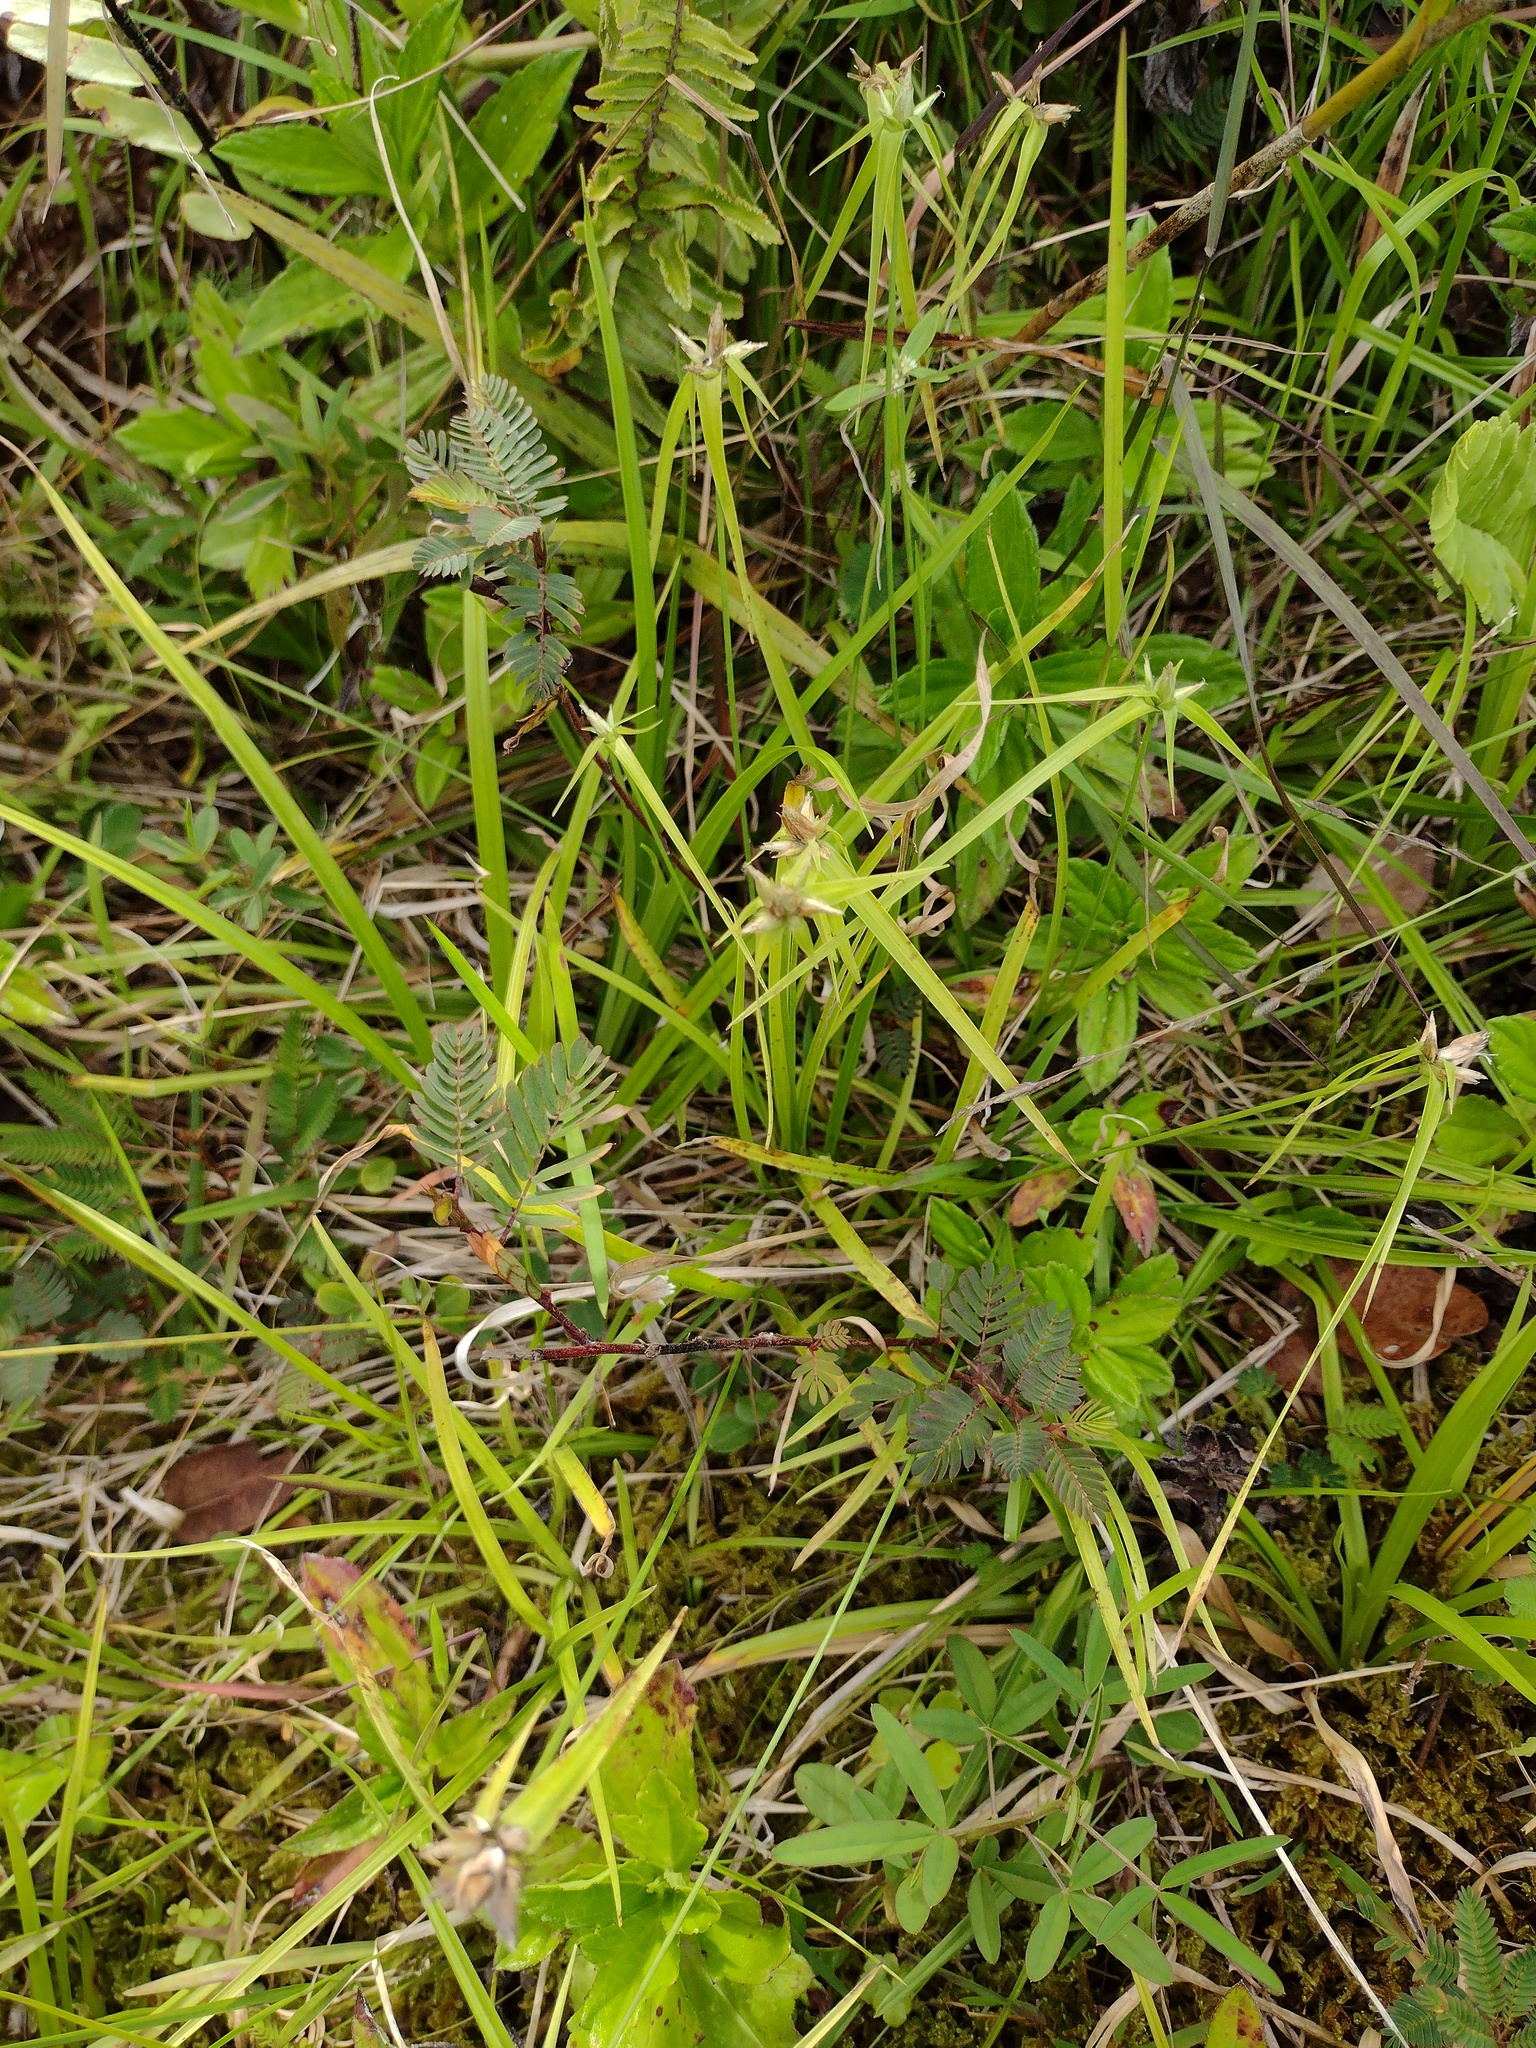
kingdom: Plantae
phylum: Tracheophyta
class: Magnoliopsida
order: Fabales
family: Fabaceae
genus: Chamaecrista
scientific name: Chamaecrista nictitans
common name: Sensitive cassia
